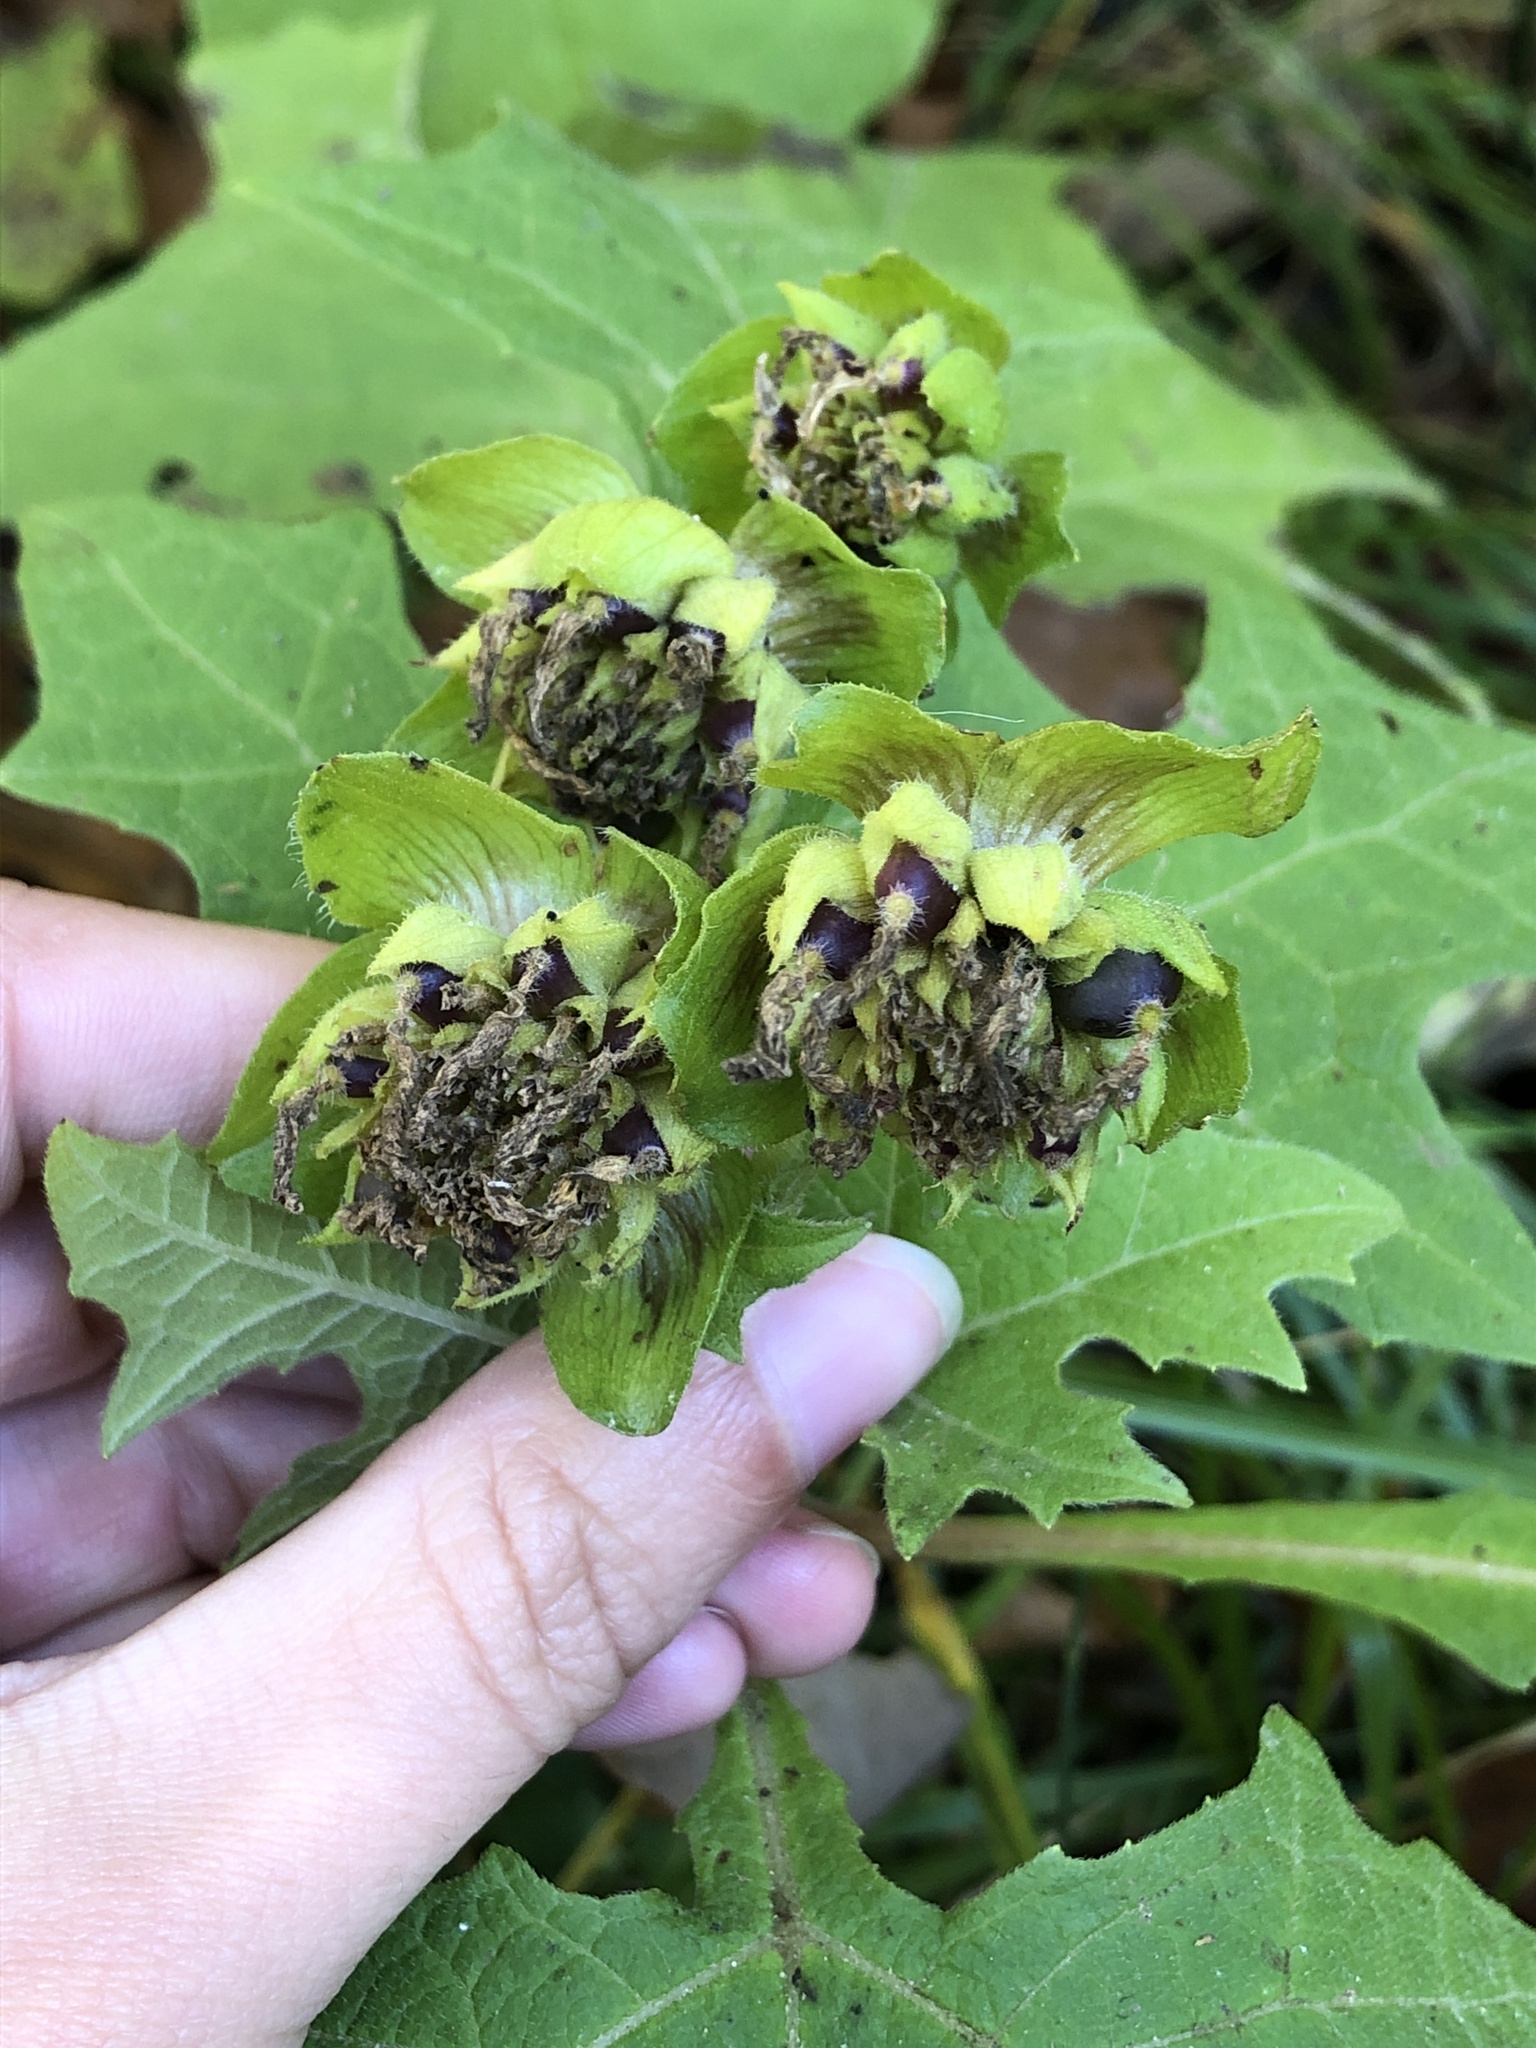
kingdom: Plantae
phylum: Tracheophyta
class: Magnoliopsida
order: Asterales
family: Asteraceae
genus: Smallanthus
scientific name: Smallanthus uvedalia
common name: Bear's-foot
